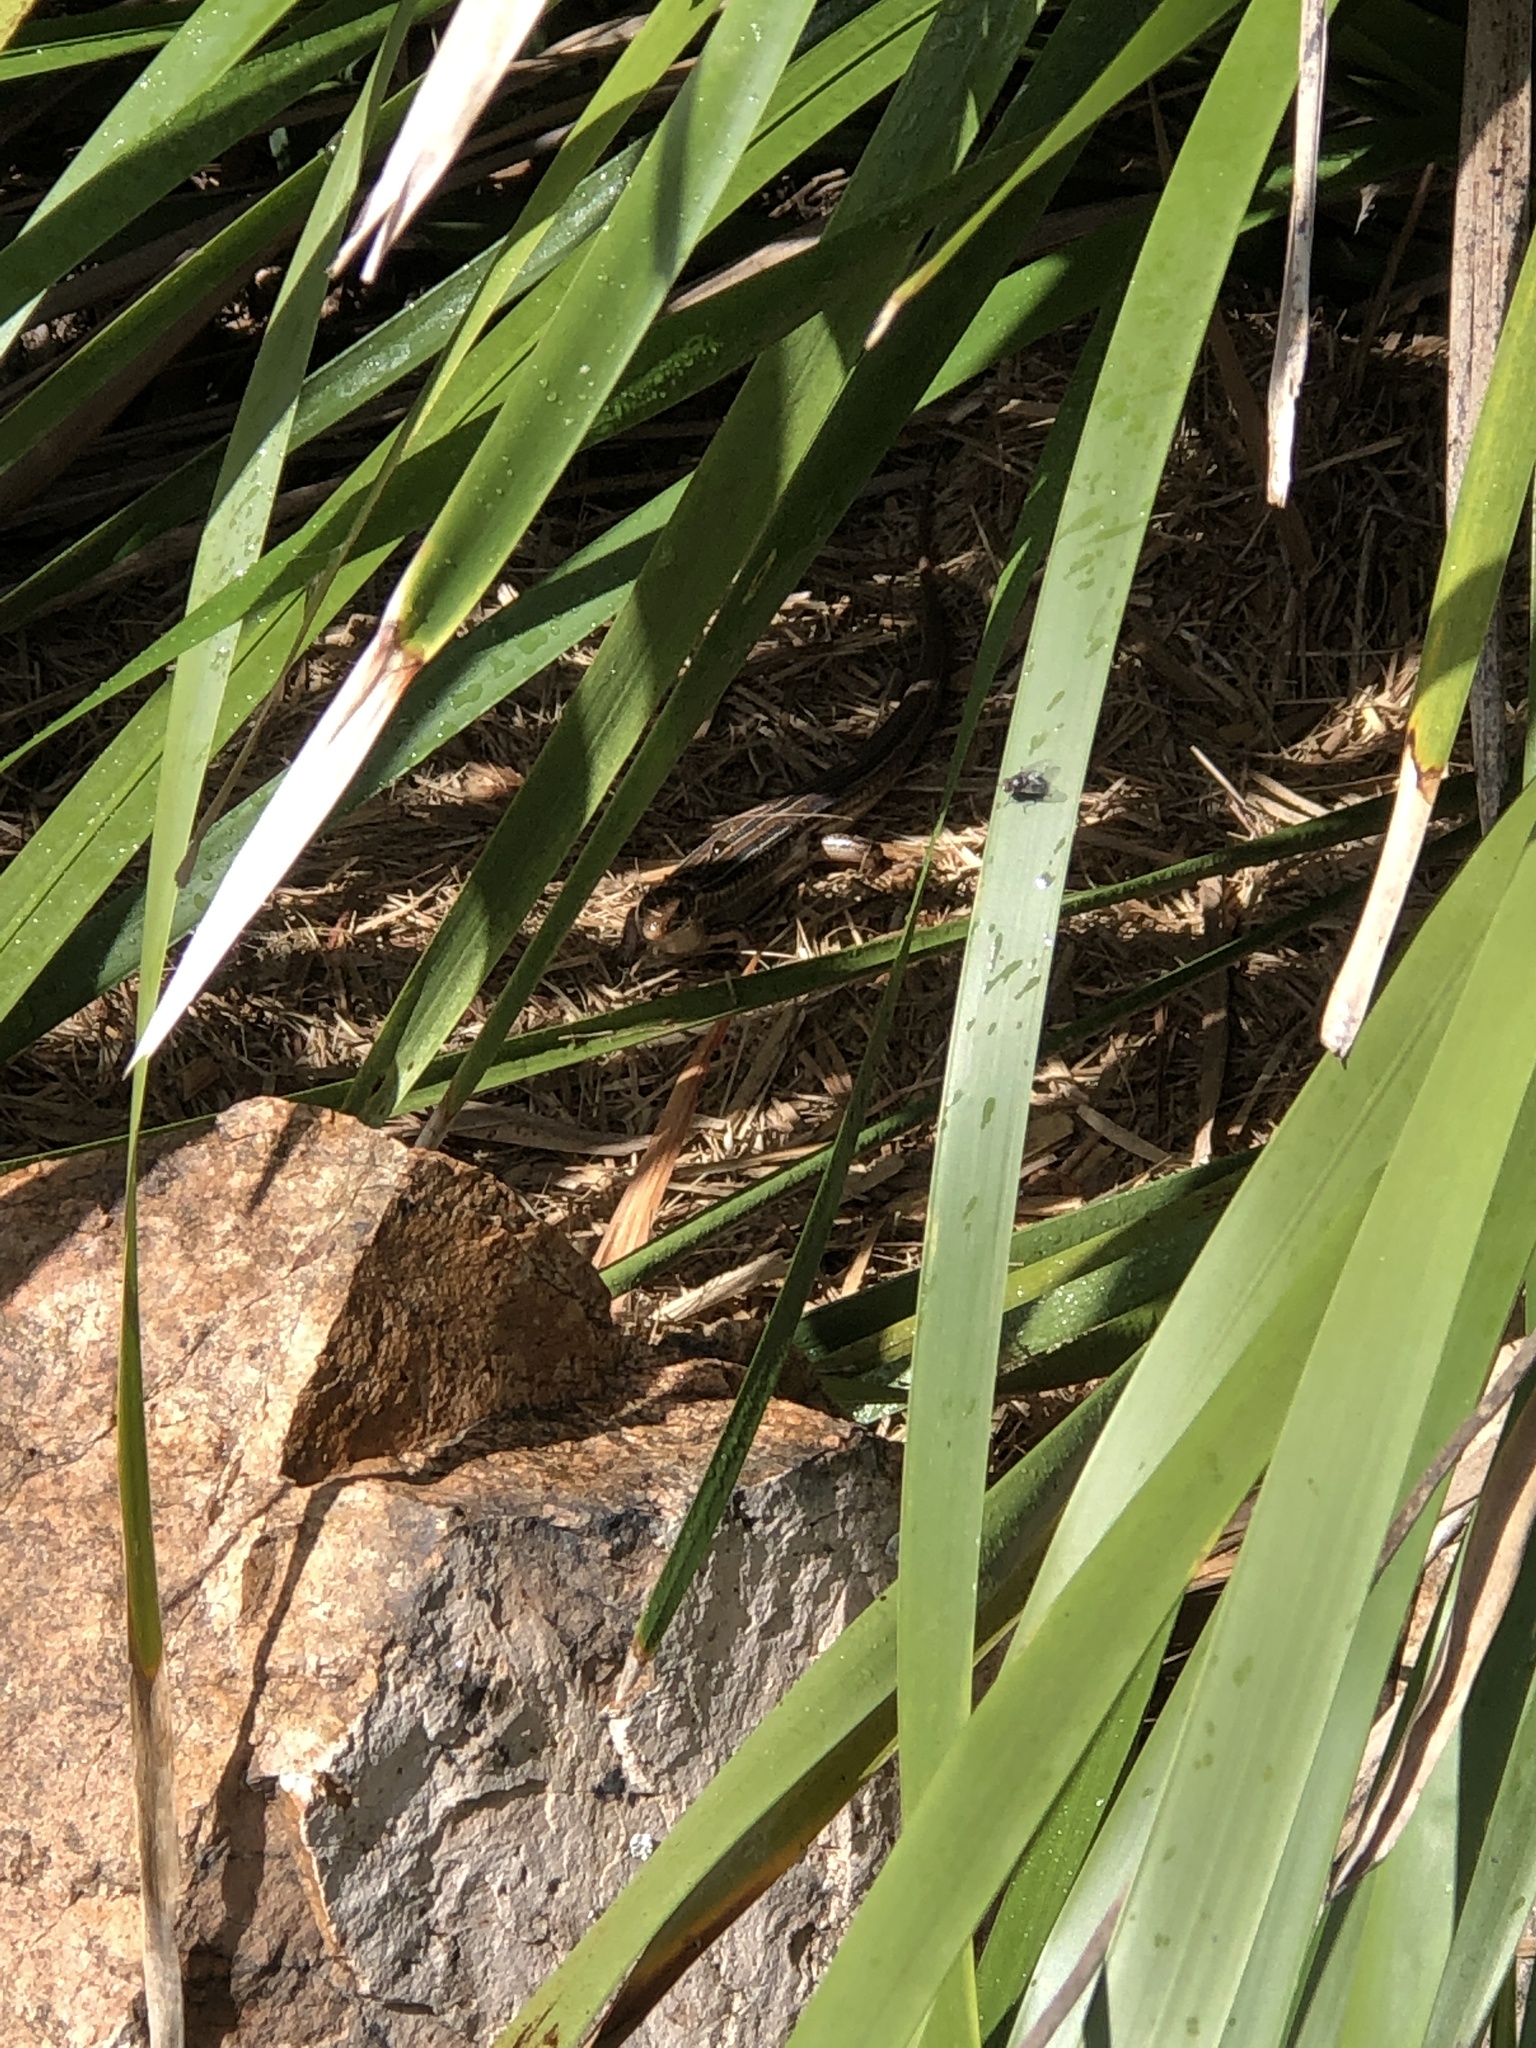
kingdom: Animalia
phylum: Chordata
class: Squamata
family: Scincidae
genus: Ctenotus
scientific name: Ctenotus robustus
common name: Robust ctenotus
